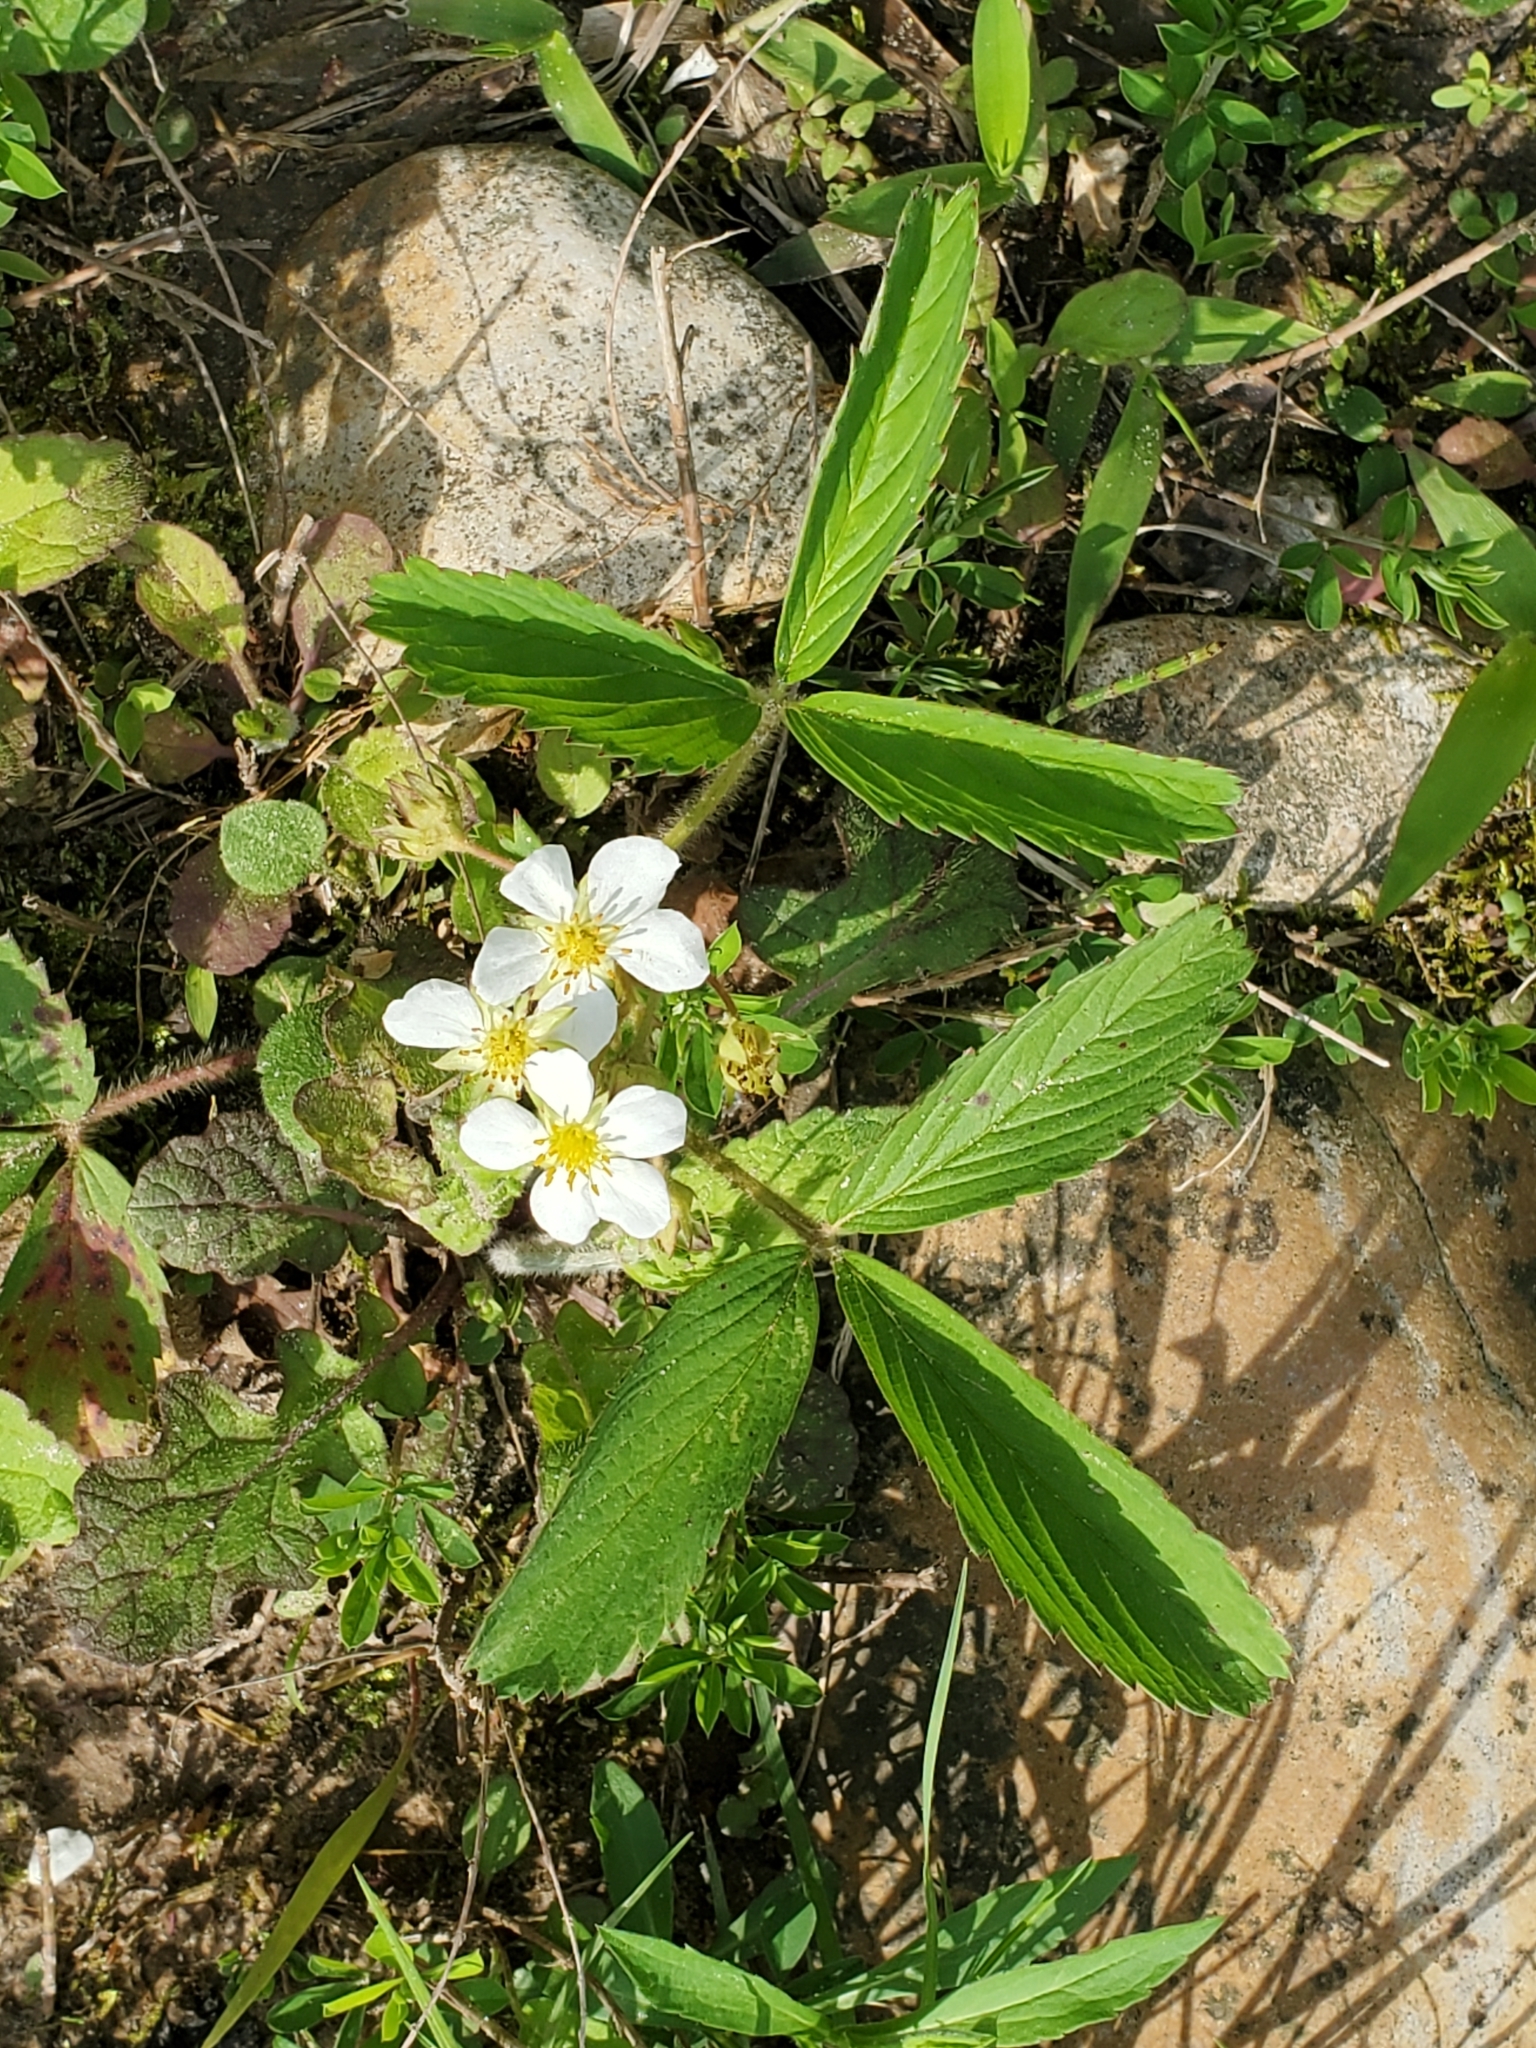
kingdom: Plantae
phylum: Tracheophyta
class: Magnoliopsida
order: Rosales
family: Rosaceae
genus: Fragaria
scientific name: Fragaria virginiana
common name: Thickleaved wild strawberry
